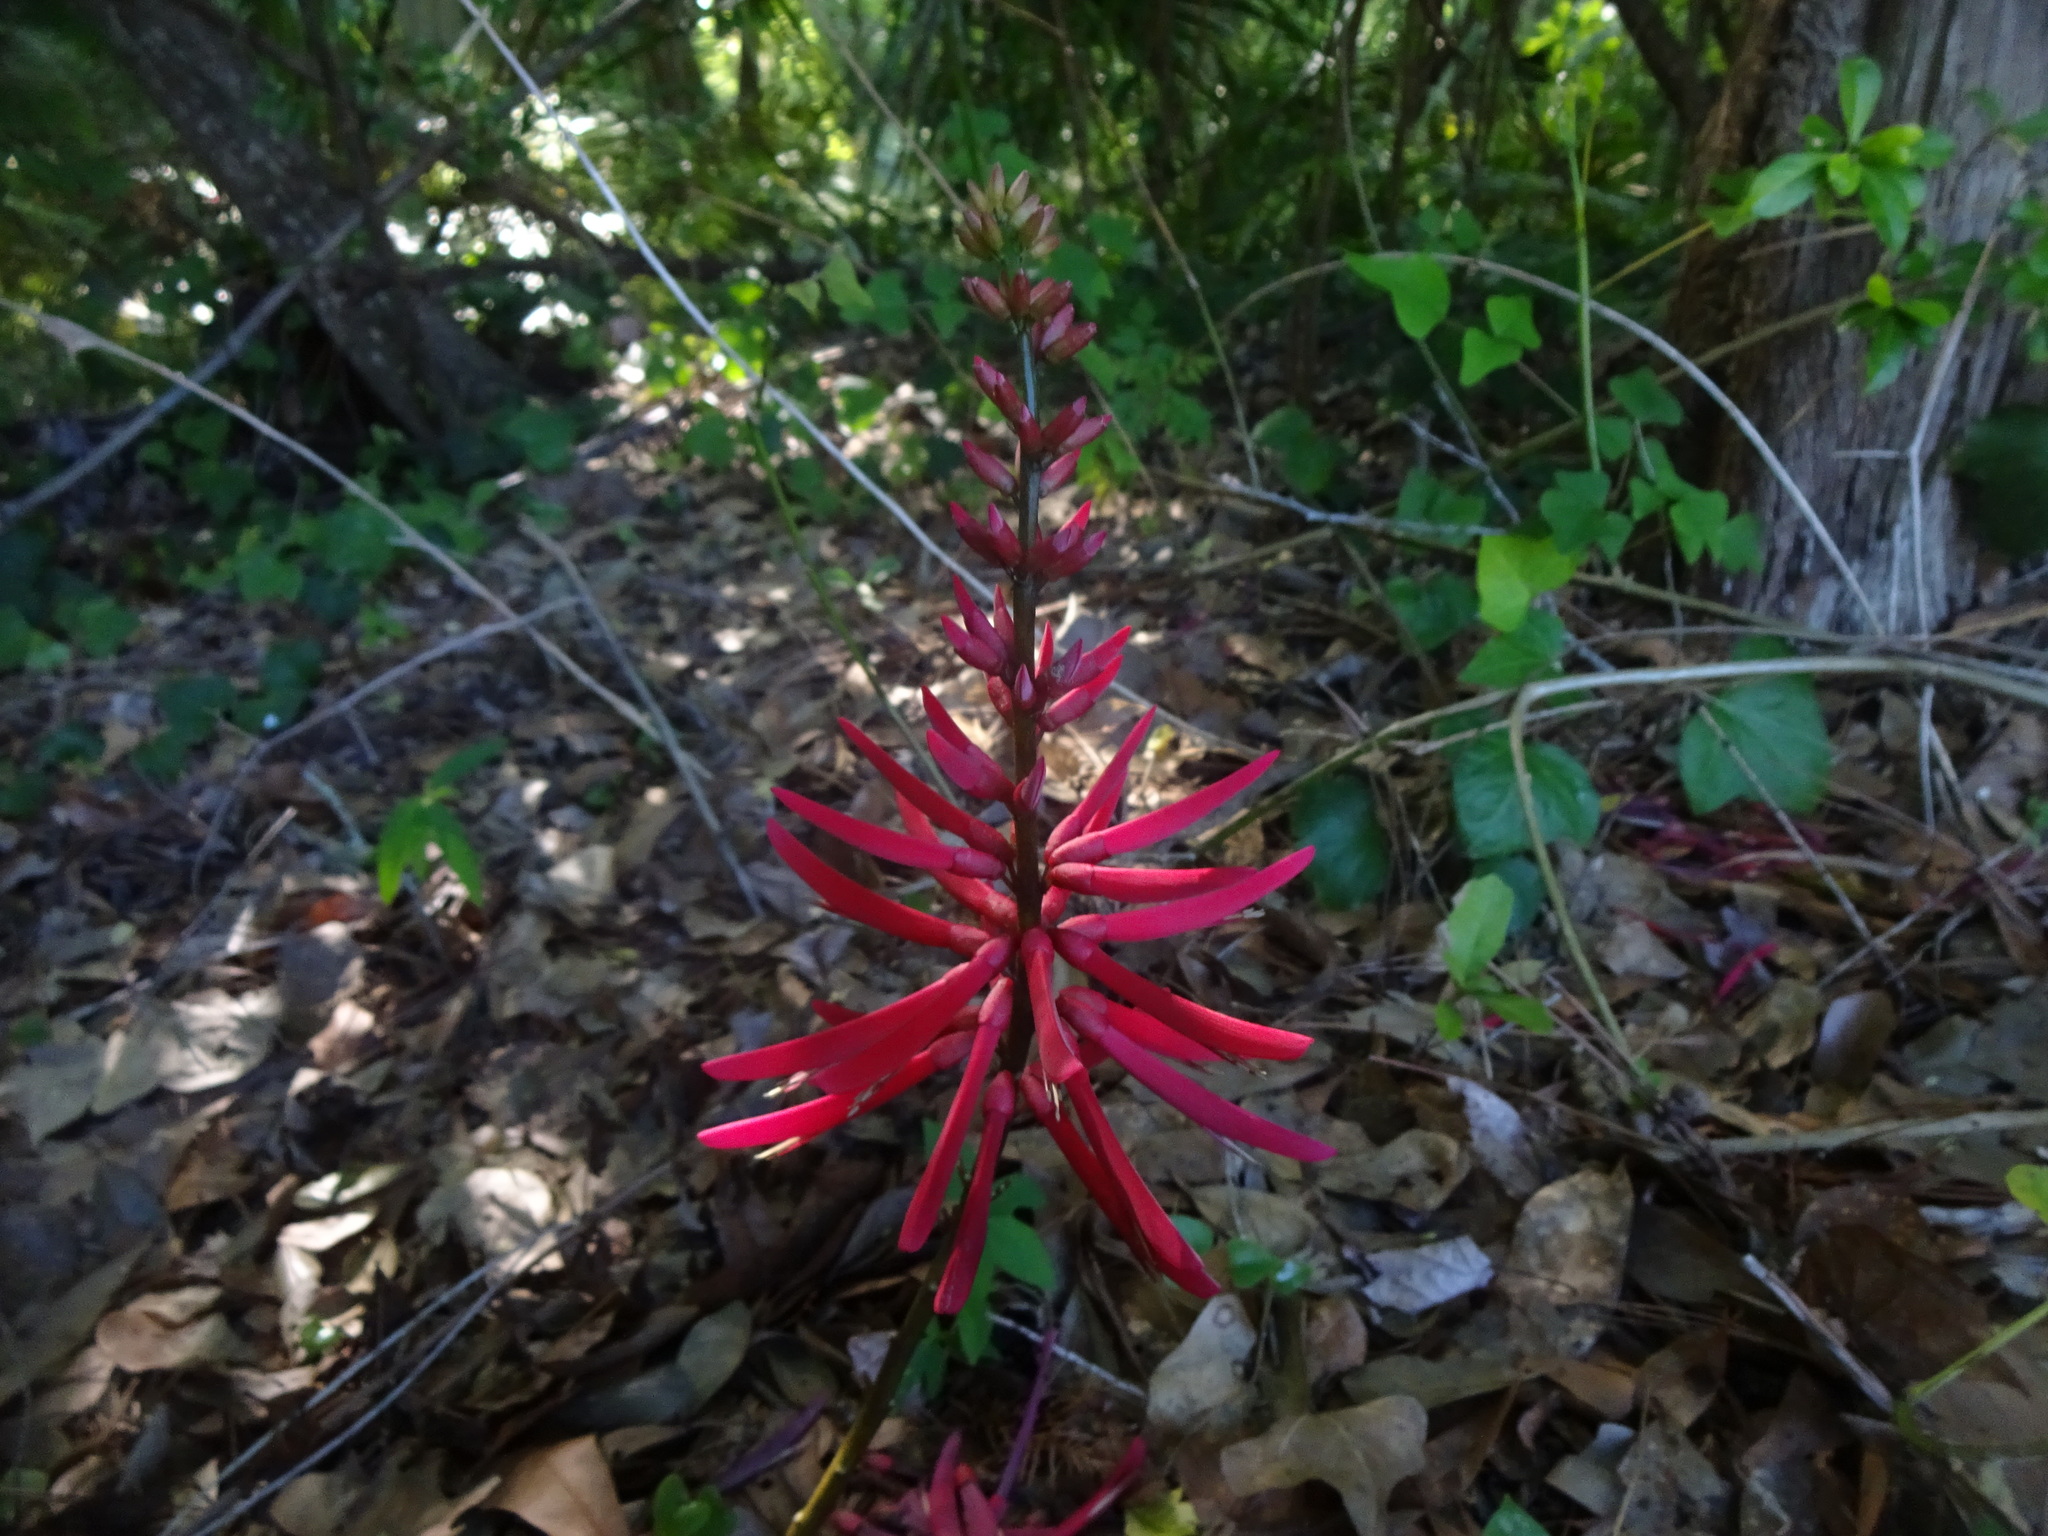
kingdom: Plantae
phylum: Tracheophyta
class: Magnoliopsida
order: Fabales
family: Fabaceae
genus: Erythrina
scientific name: Erythrina herbacea
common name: Coral-bean
